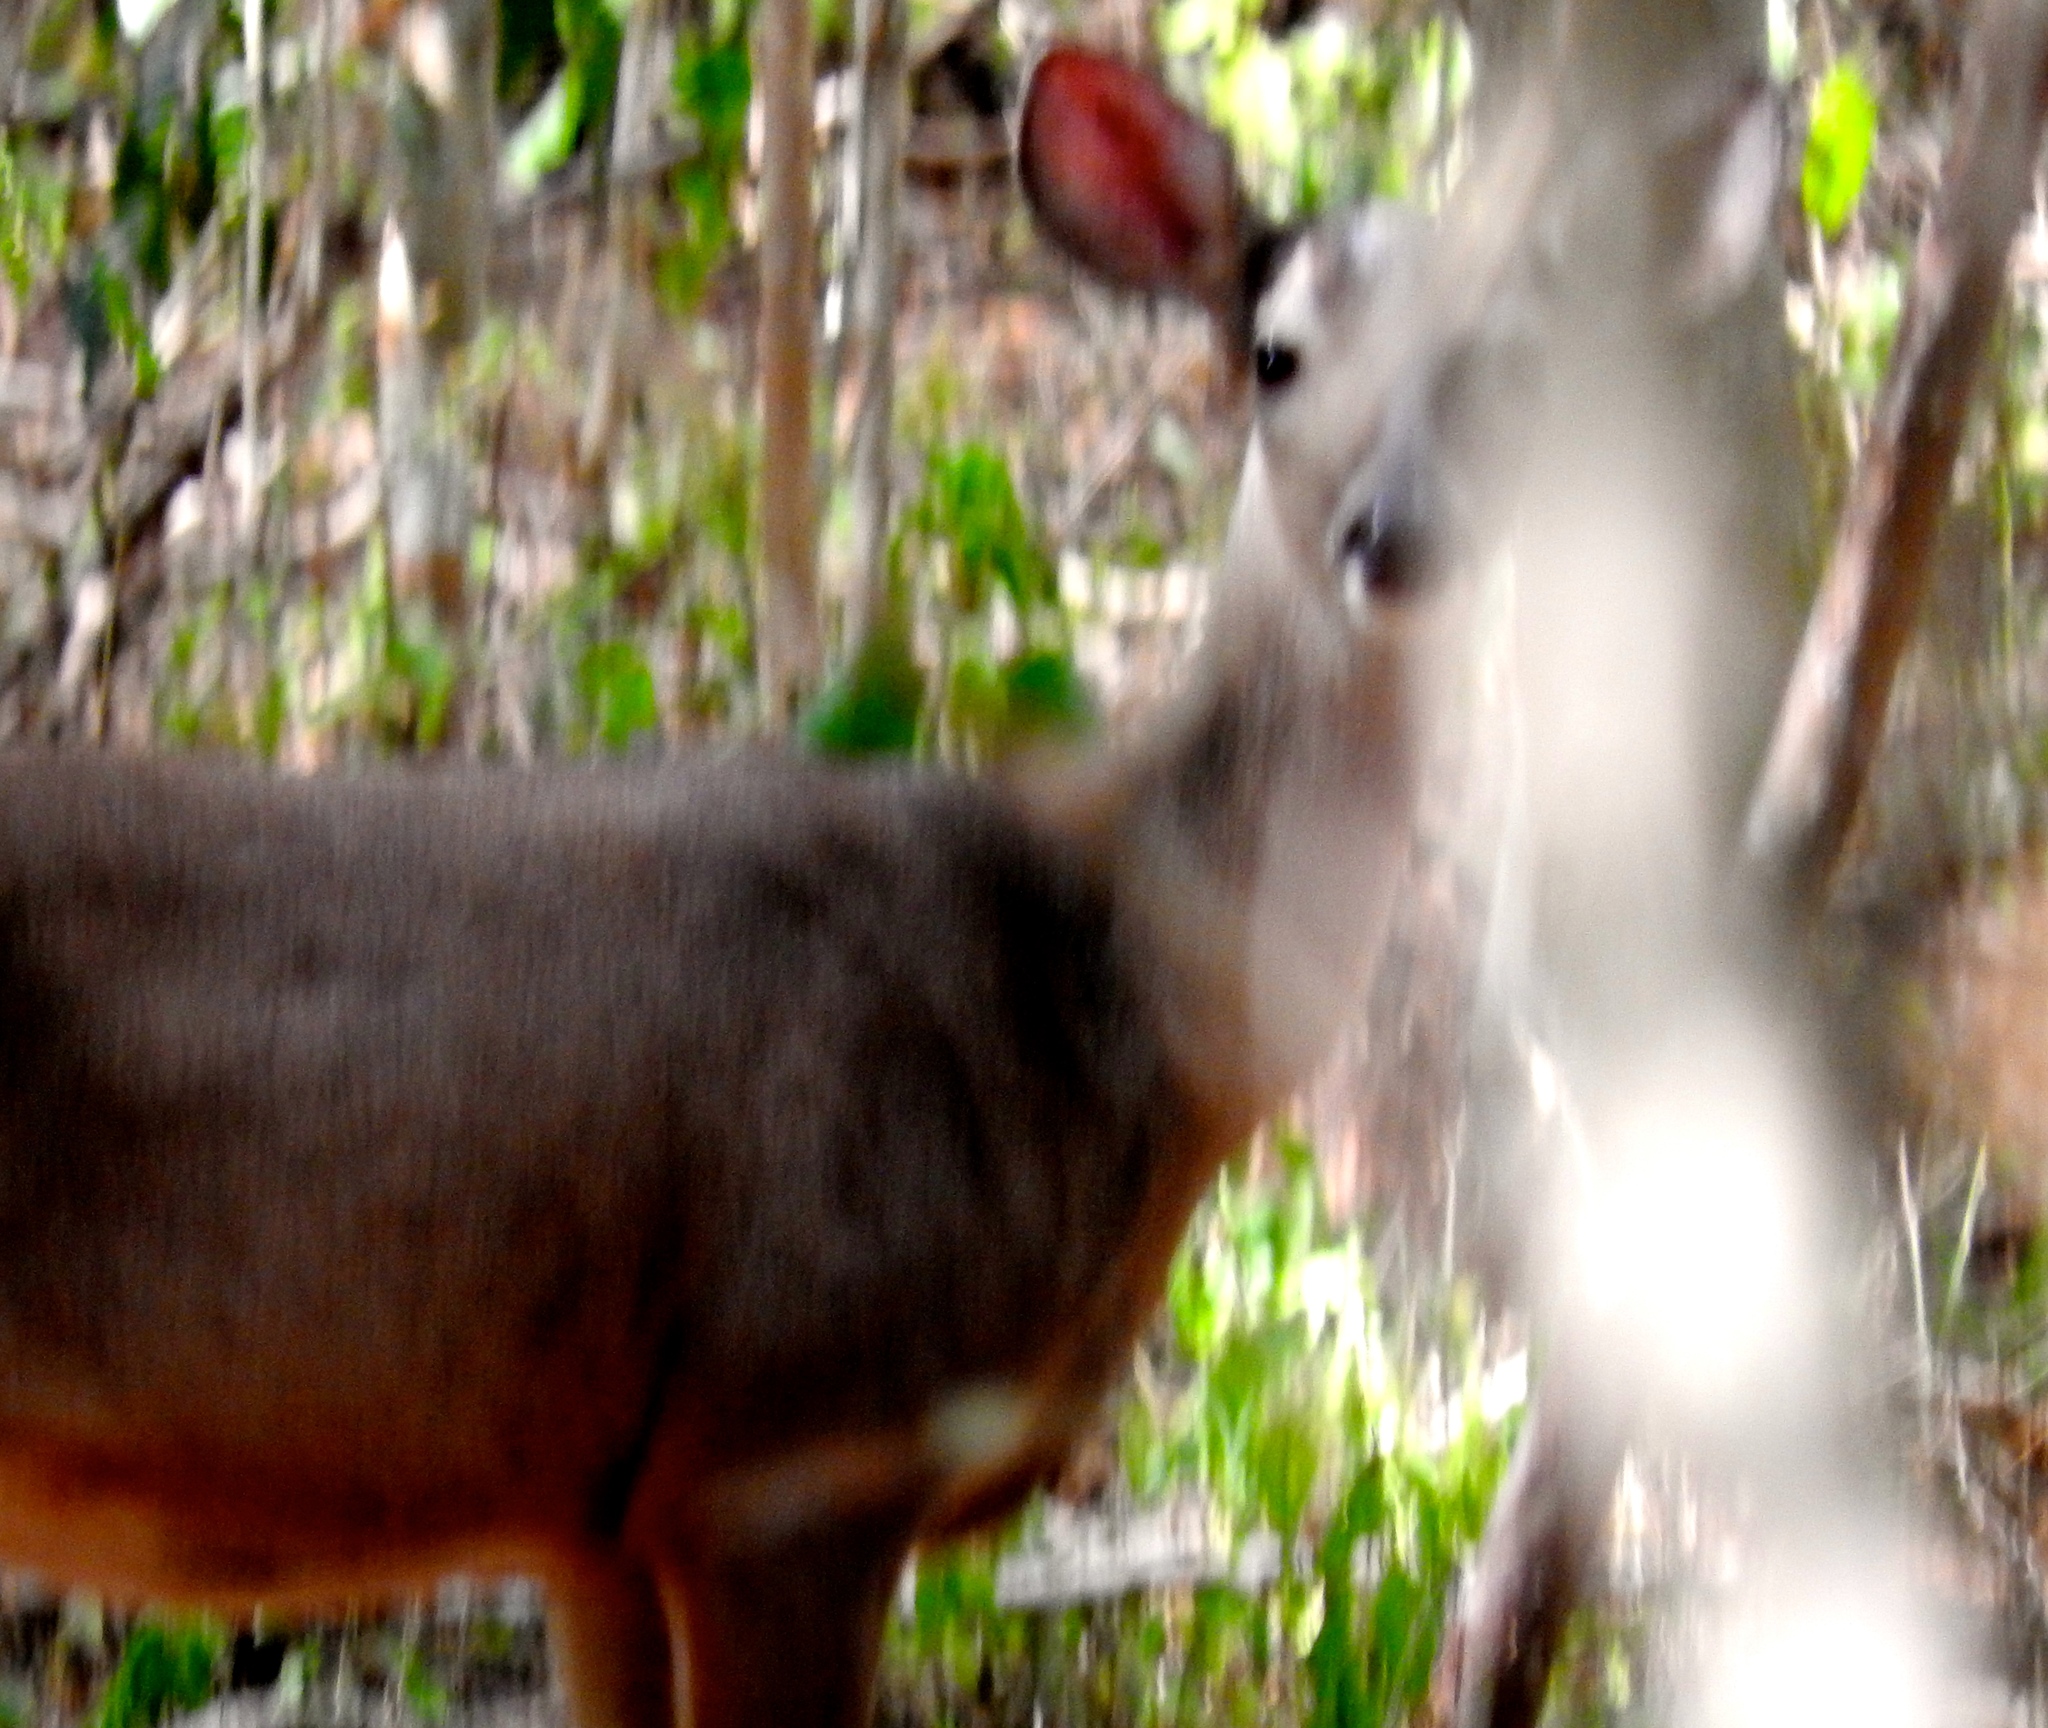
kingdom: Animalia
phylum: Chordata
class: Mammalia
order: Artiodactyla
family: Cervidae
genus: Odocoileus
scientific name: Odocoileus virginianus
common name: White-tailed deer
